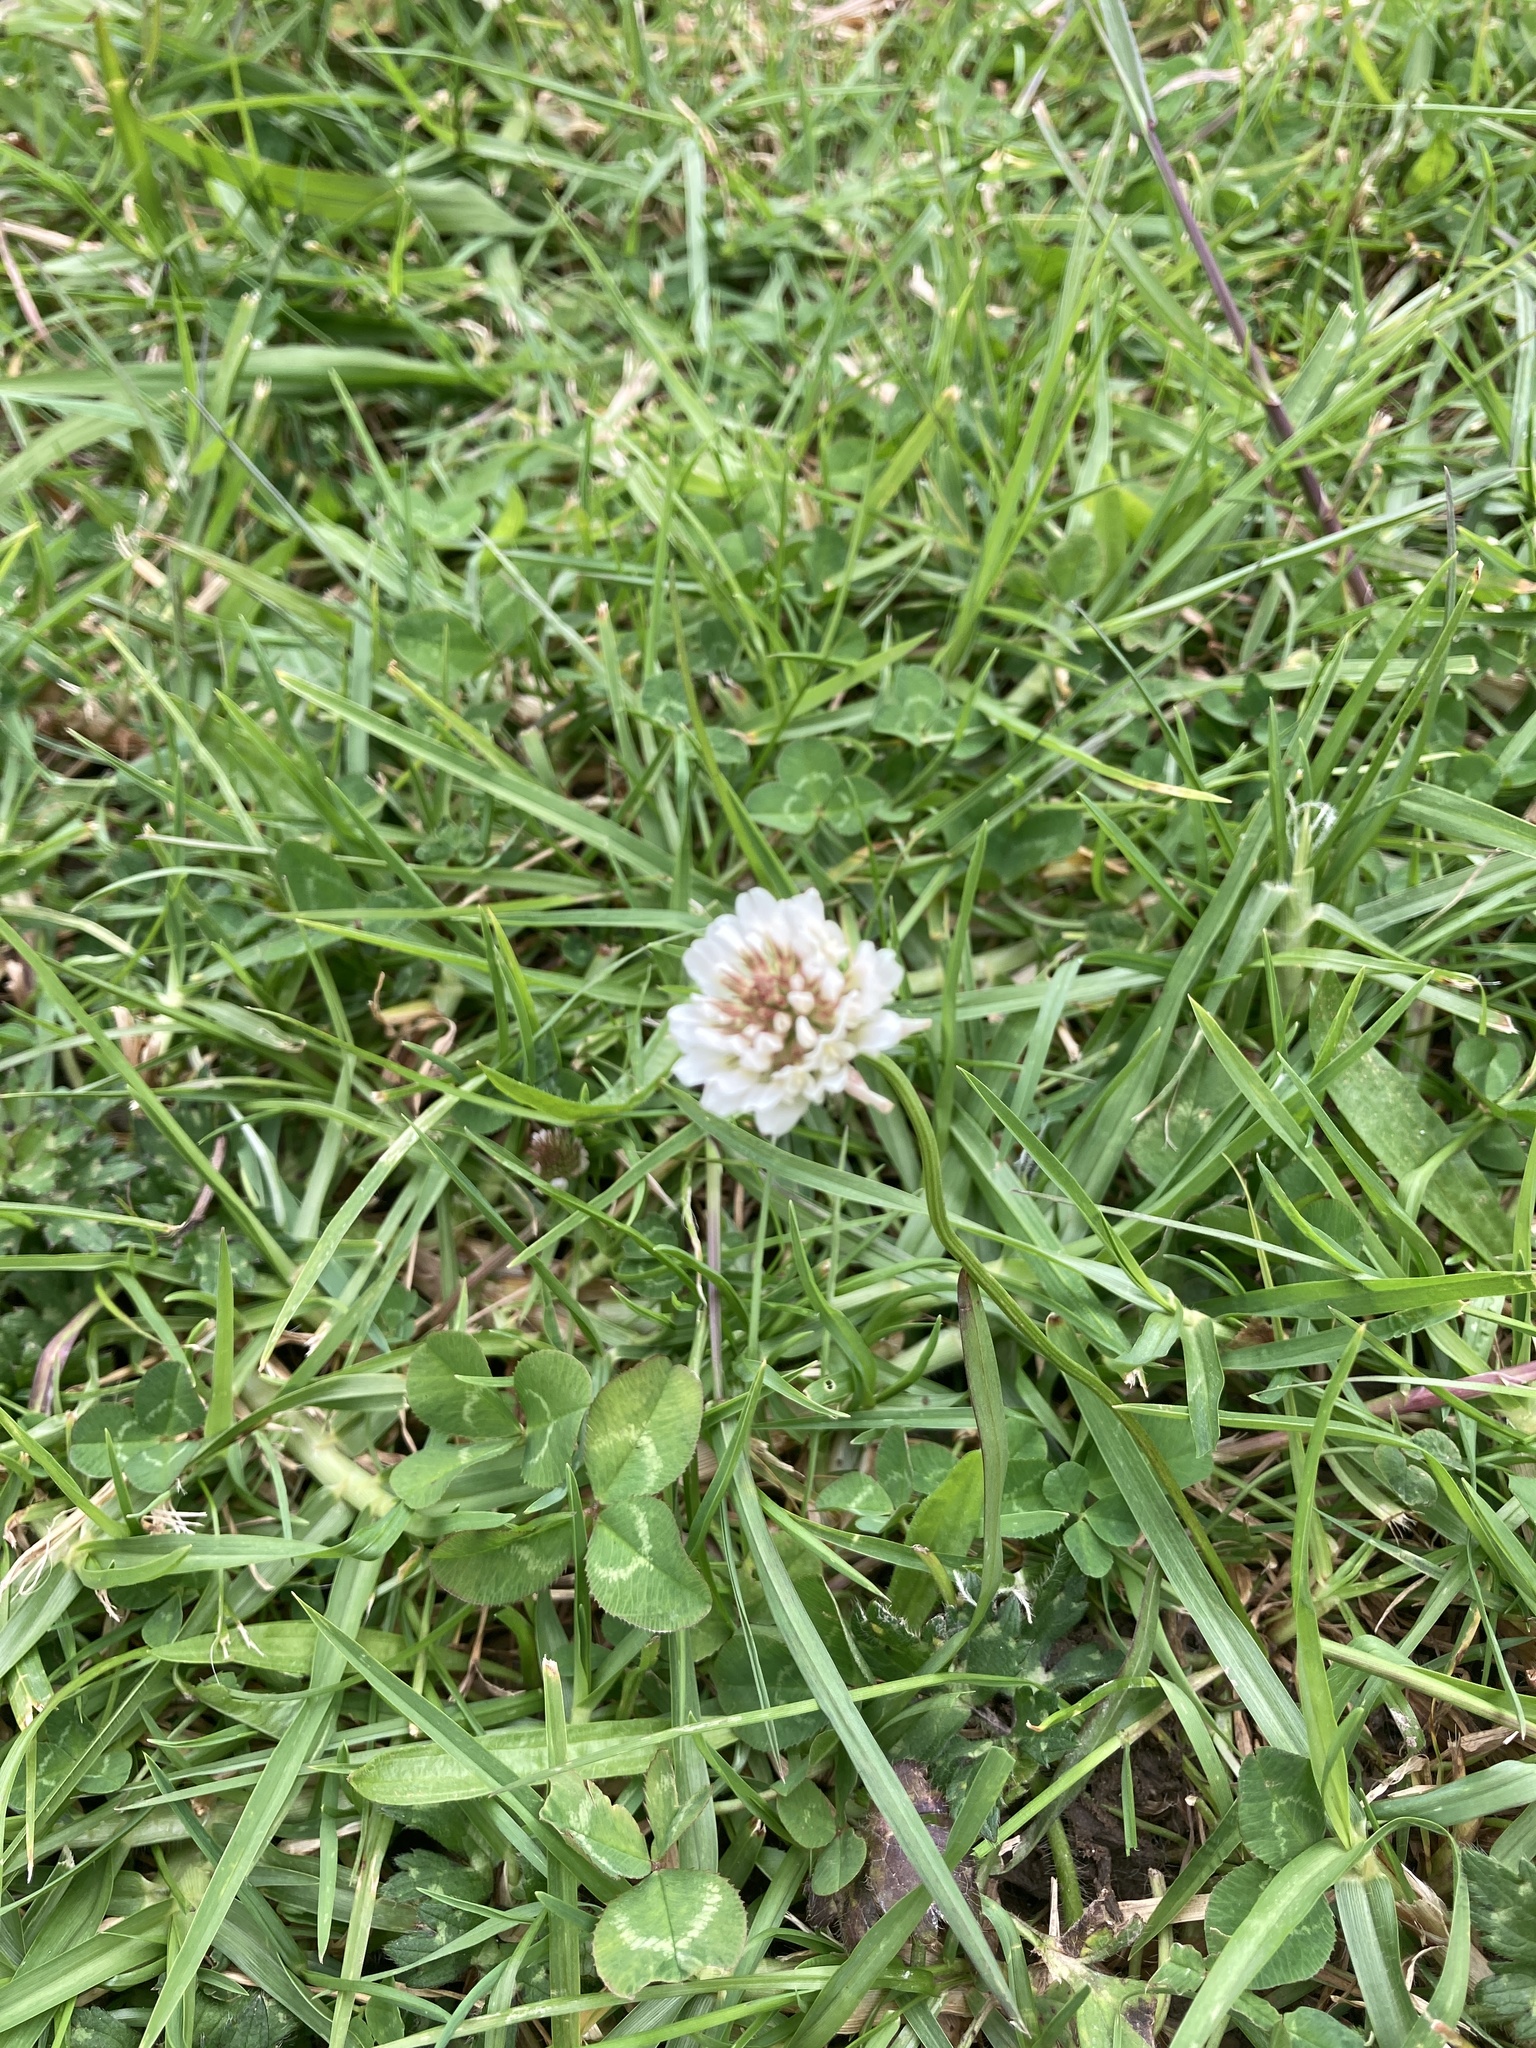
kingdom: Plantae
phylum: Tracheophyta
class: Magnoliopsida
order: Fabales
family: Fabaceae
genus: Trifolium
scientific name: Trifolium repens
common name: White clover
